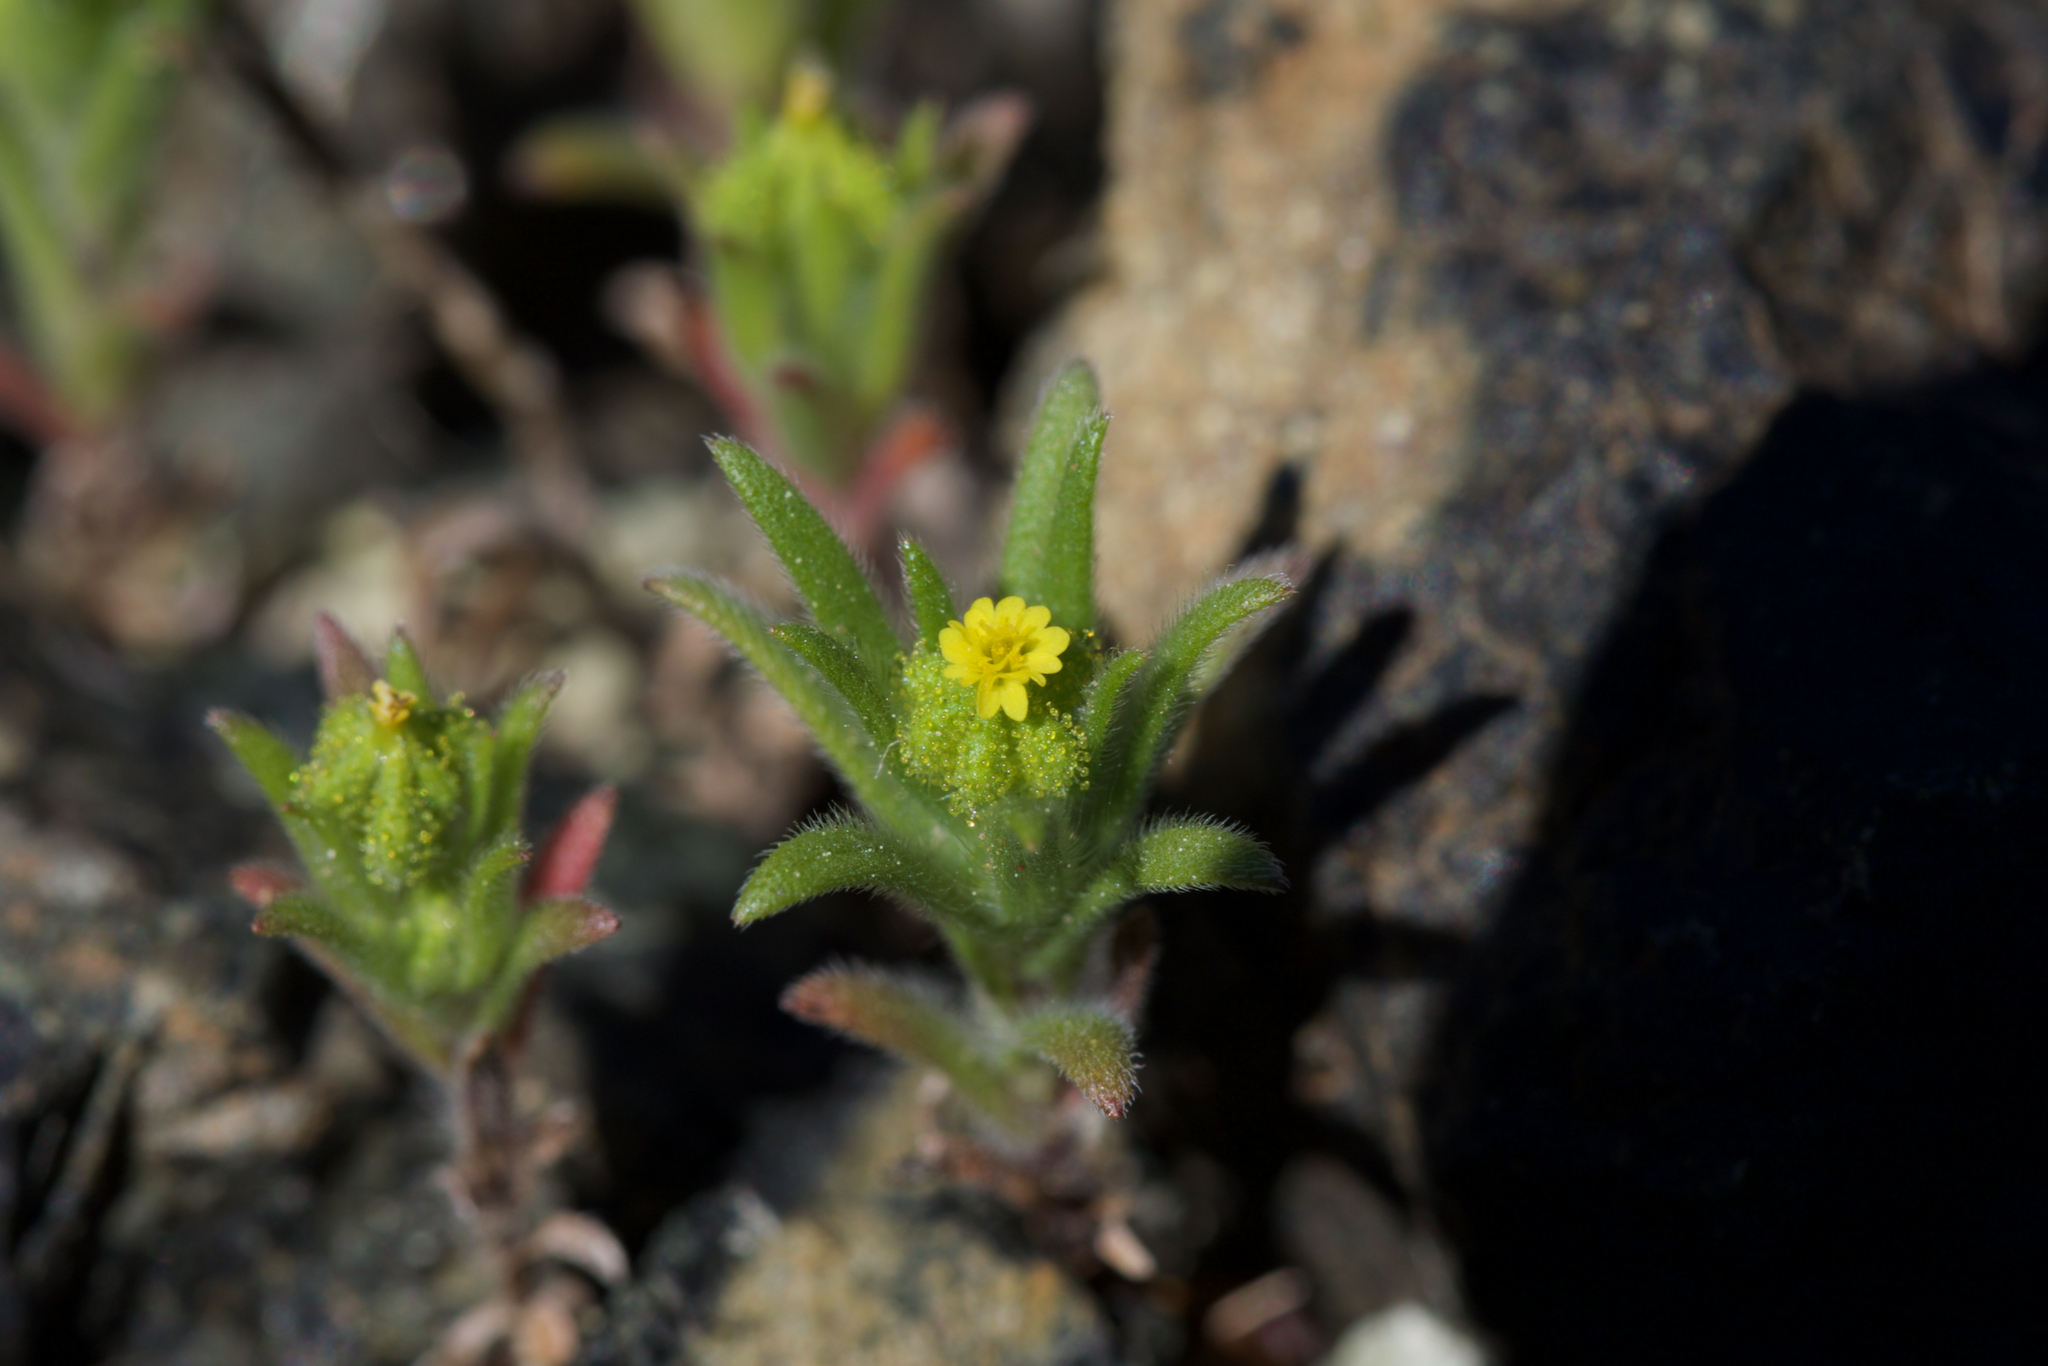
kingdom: Plantae
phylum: Tracheophyta
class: Magnoliopsida
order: Asterales
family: Asteraceae
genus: Madia
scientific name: Madia exigua
